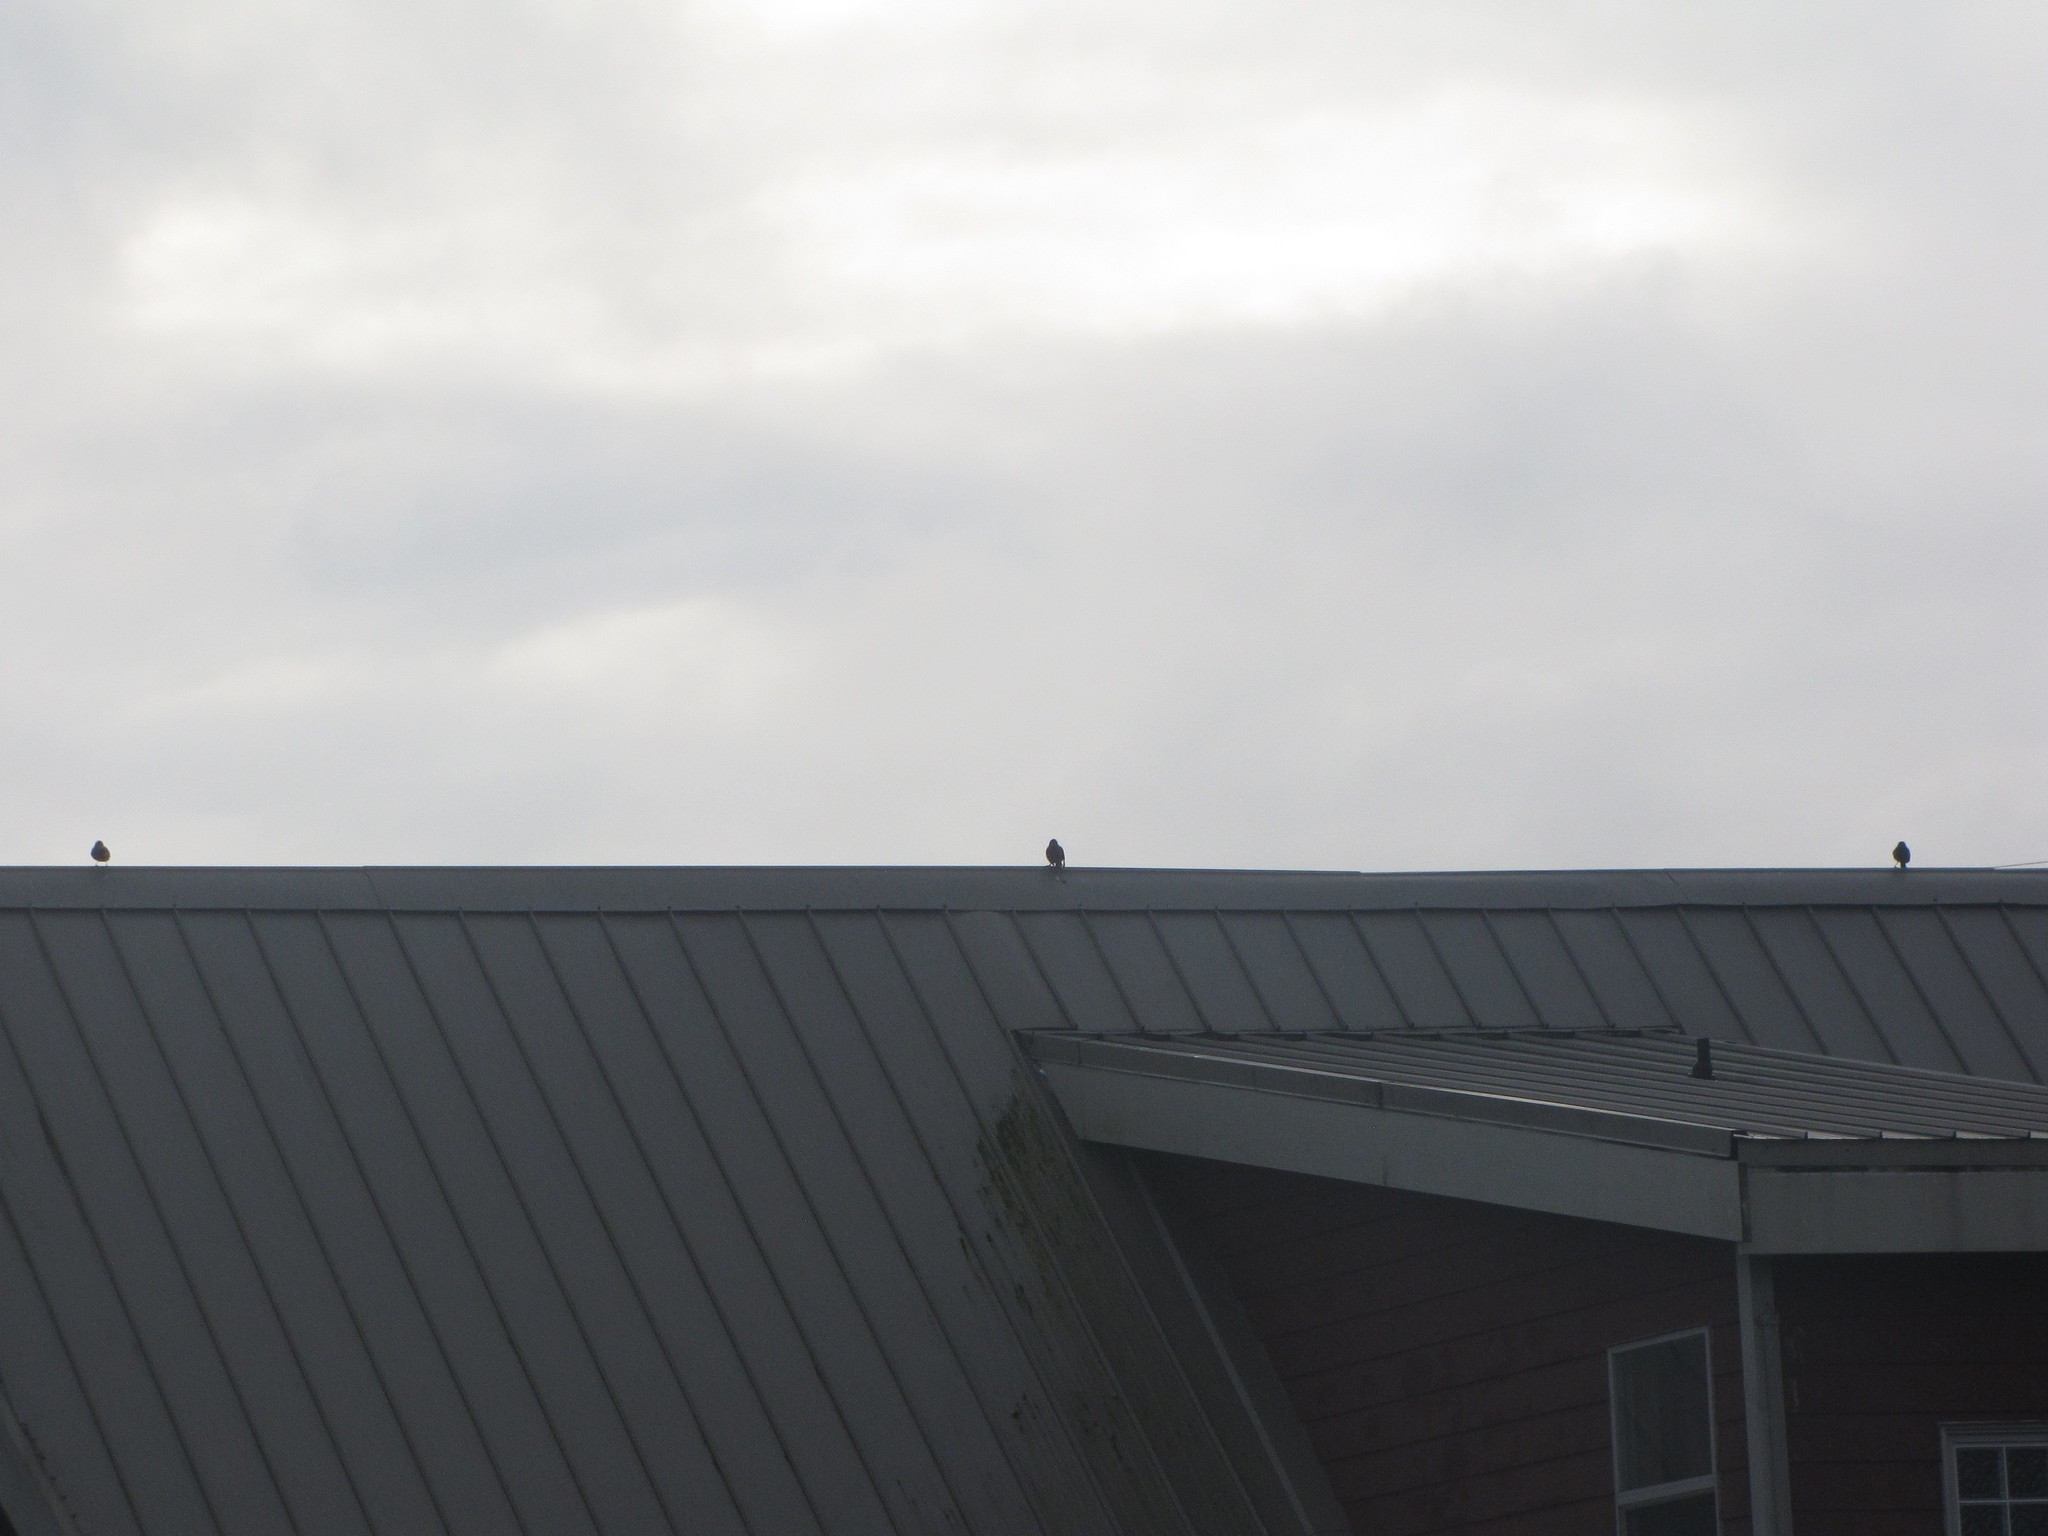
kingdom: Animalia
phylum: Chordata
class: Aves
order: Passeriformes
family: Sturnidae
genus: Sturnus
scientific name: Sturnus vulgaris
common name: Common starling
